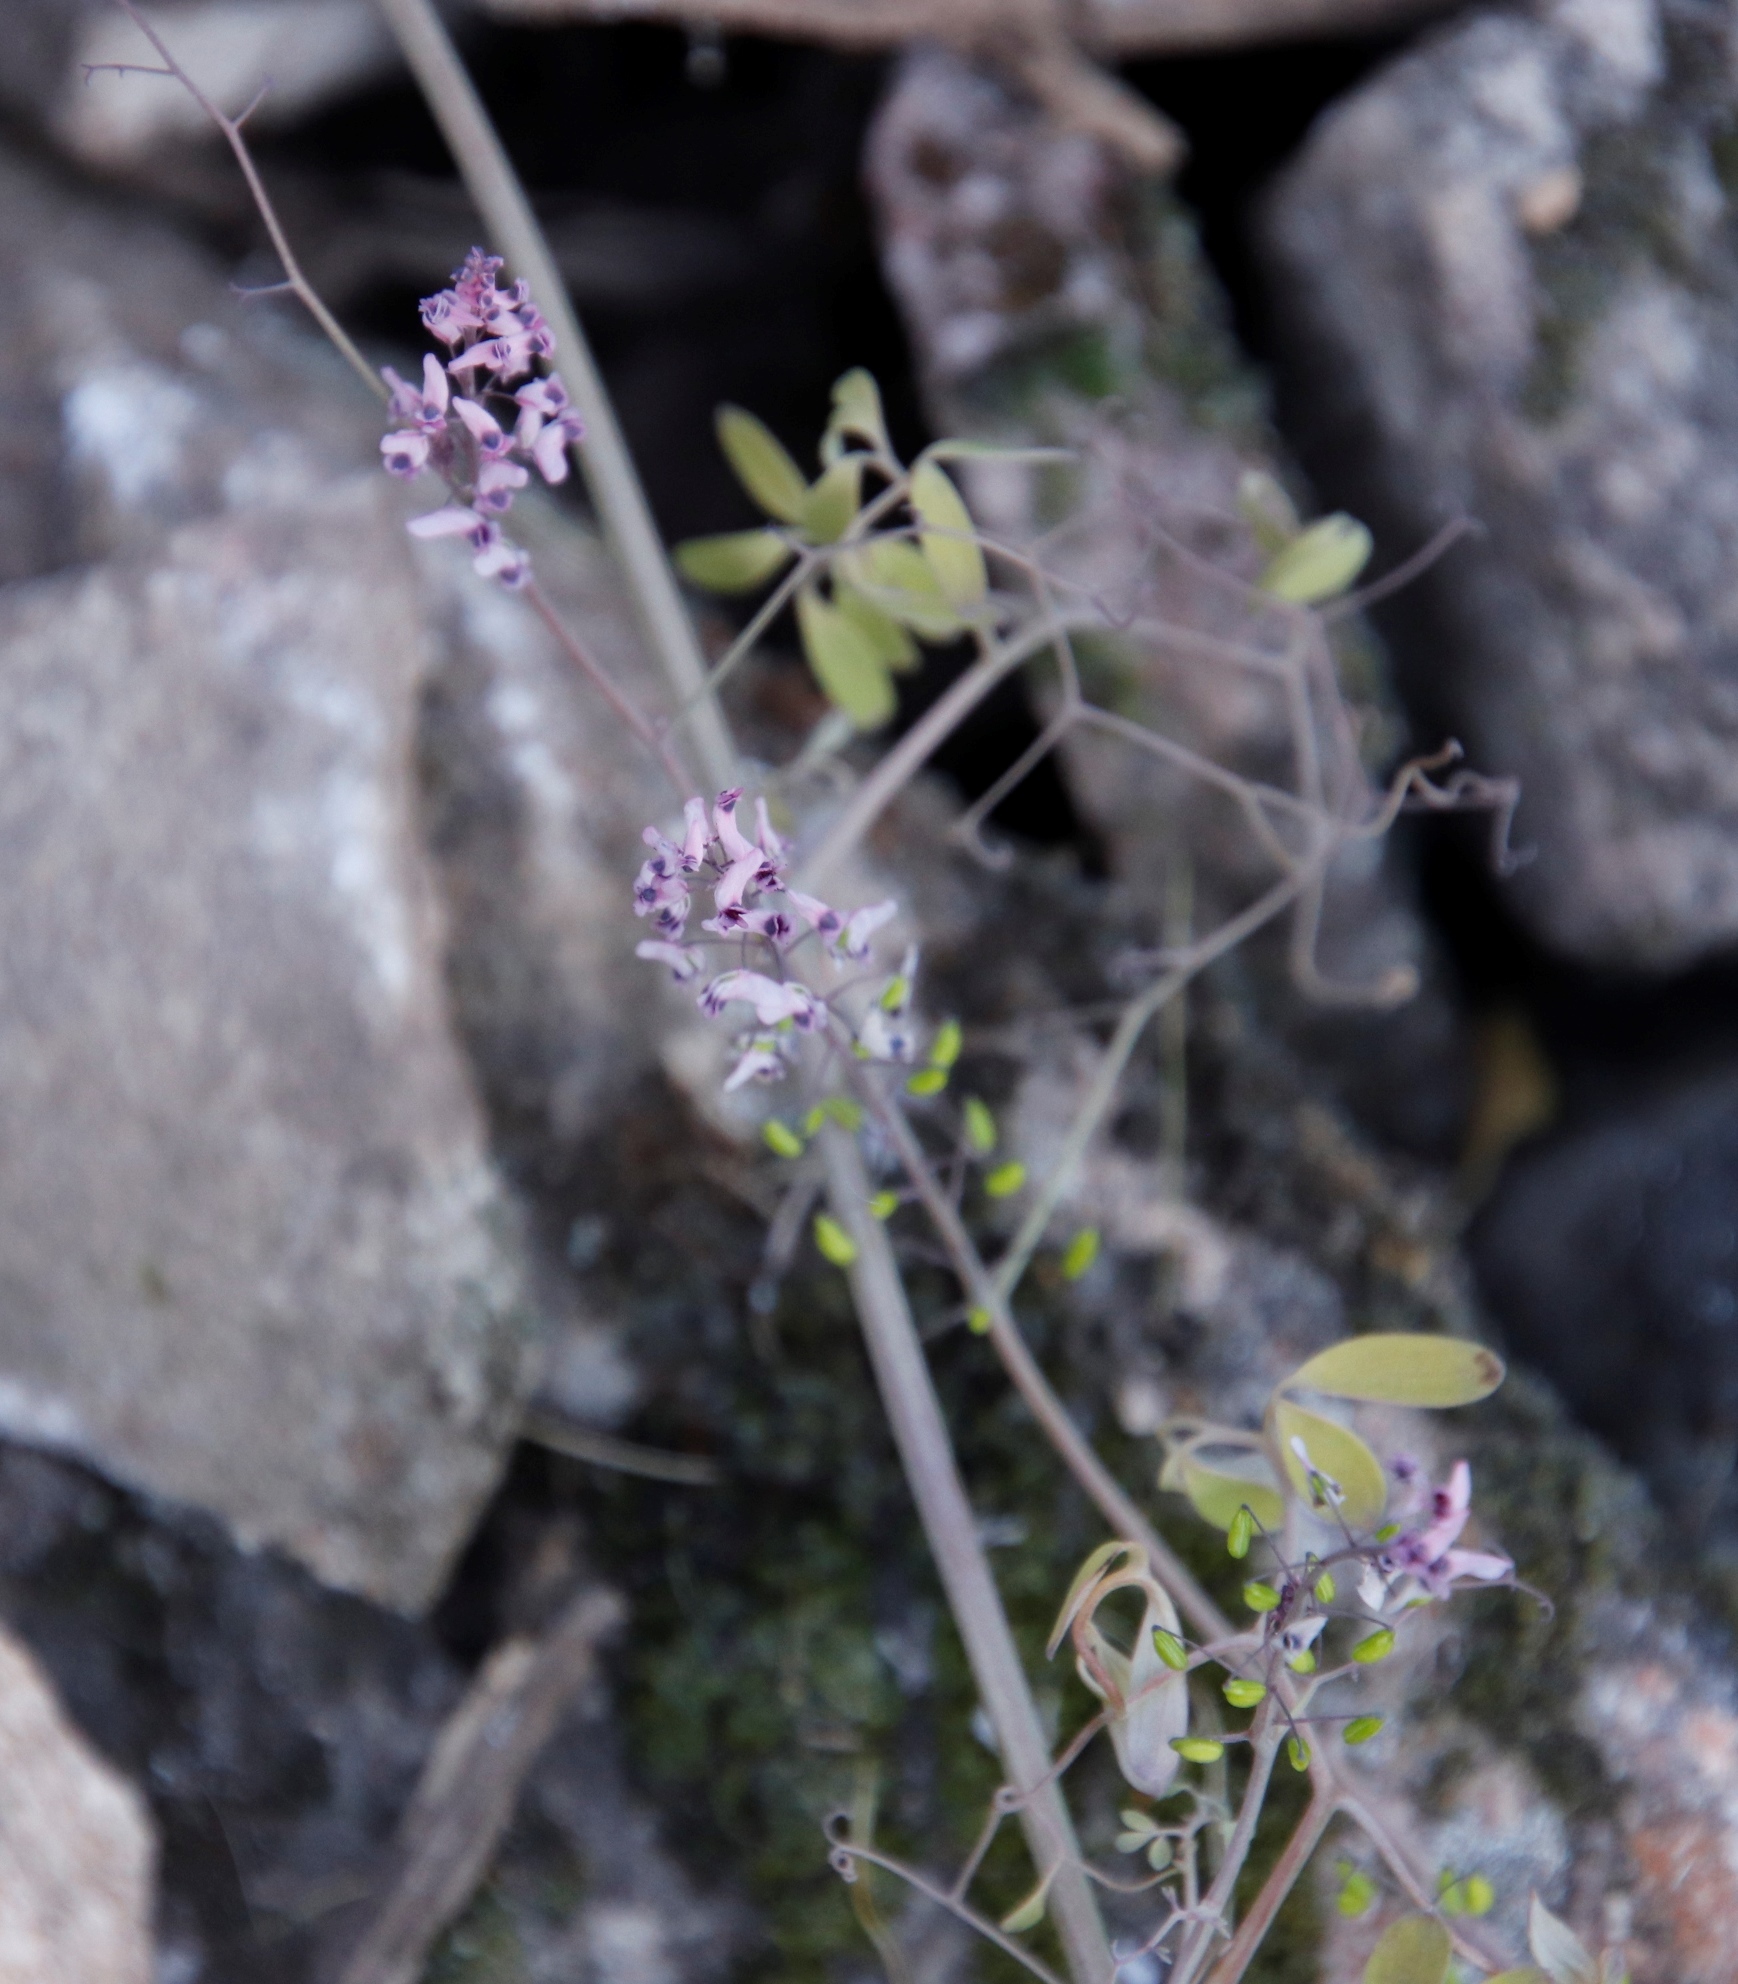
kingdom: Plantae
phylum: Tracheophyta
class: Magnoliopsida
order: Ranunculales
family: Papaveraceae
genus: Trigonocapnos
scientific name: Trigonocapnos lichtensteinii
